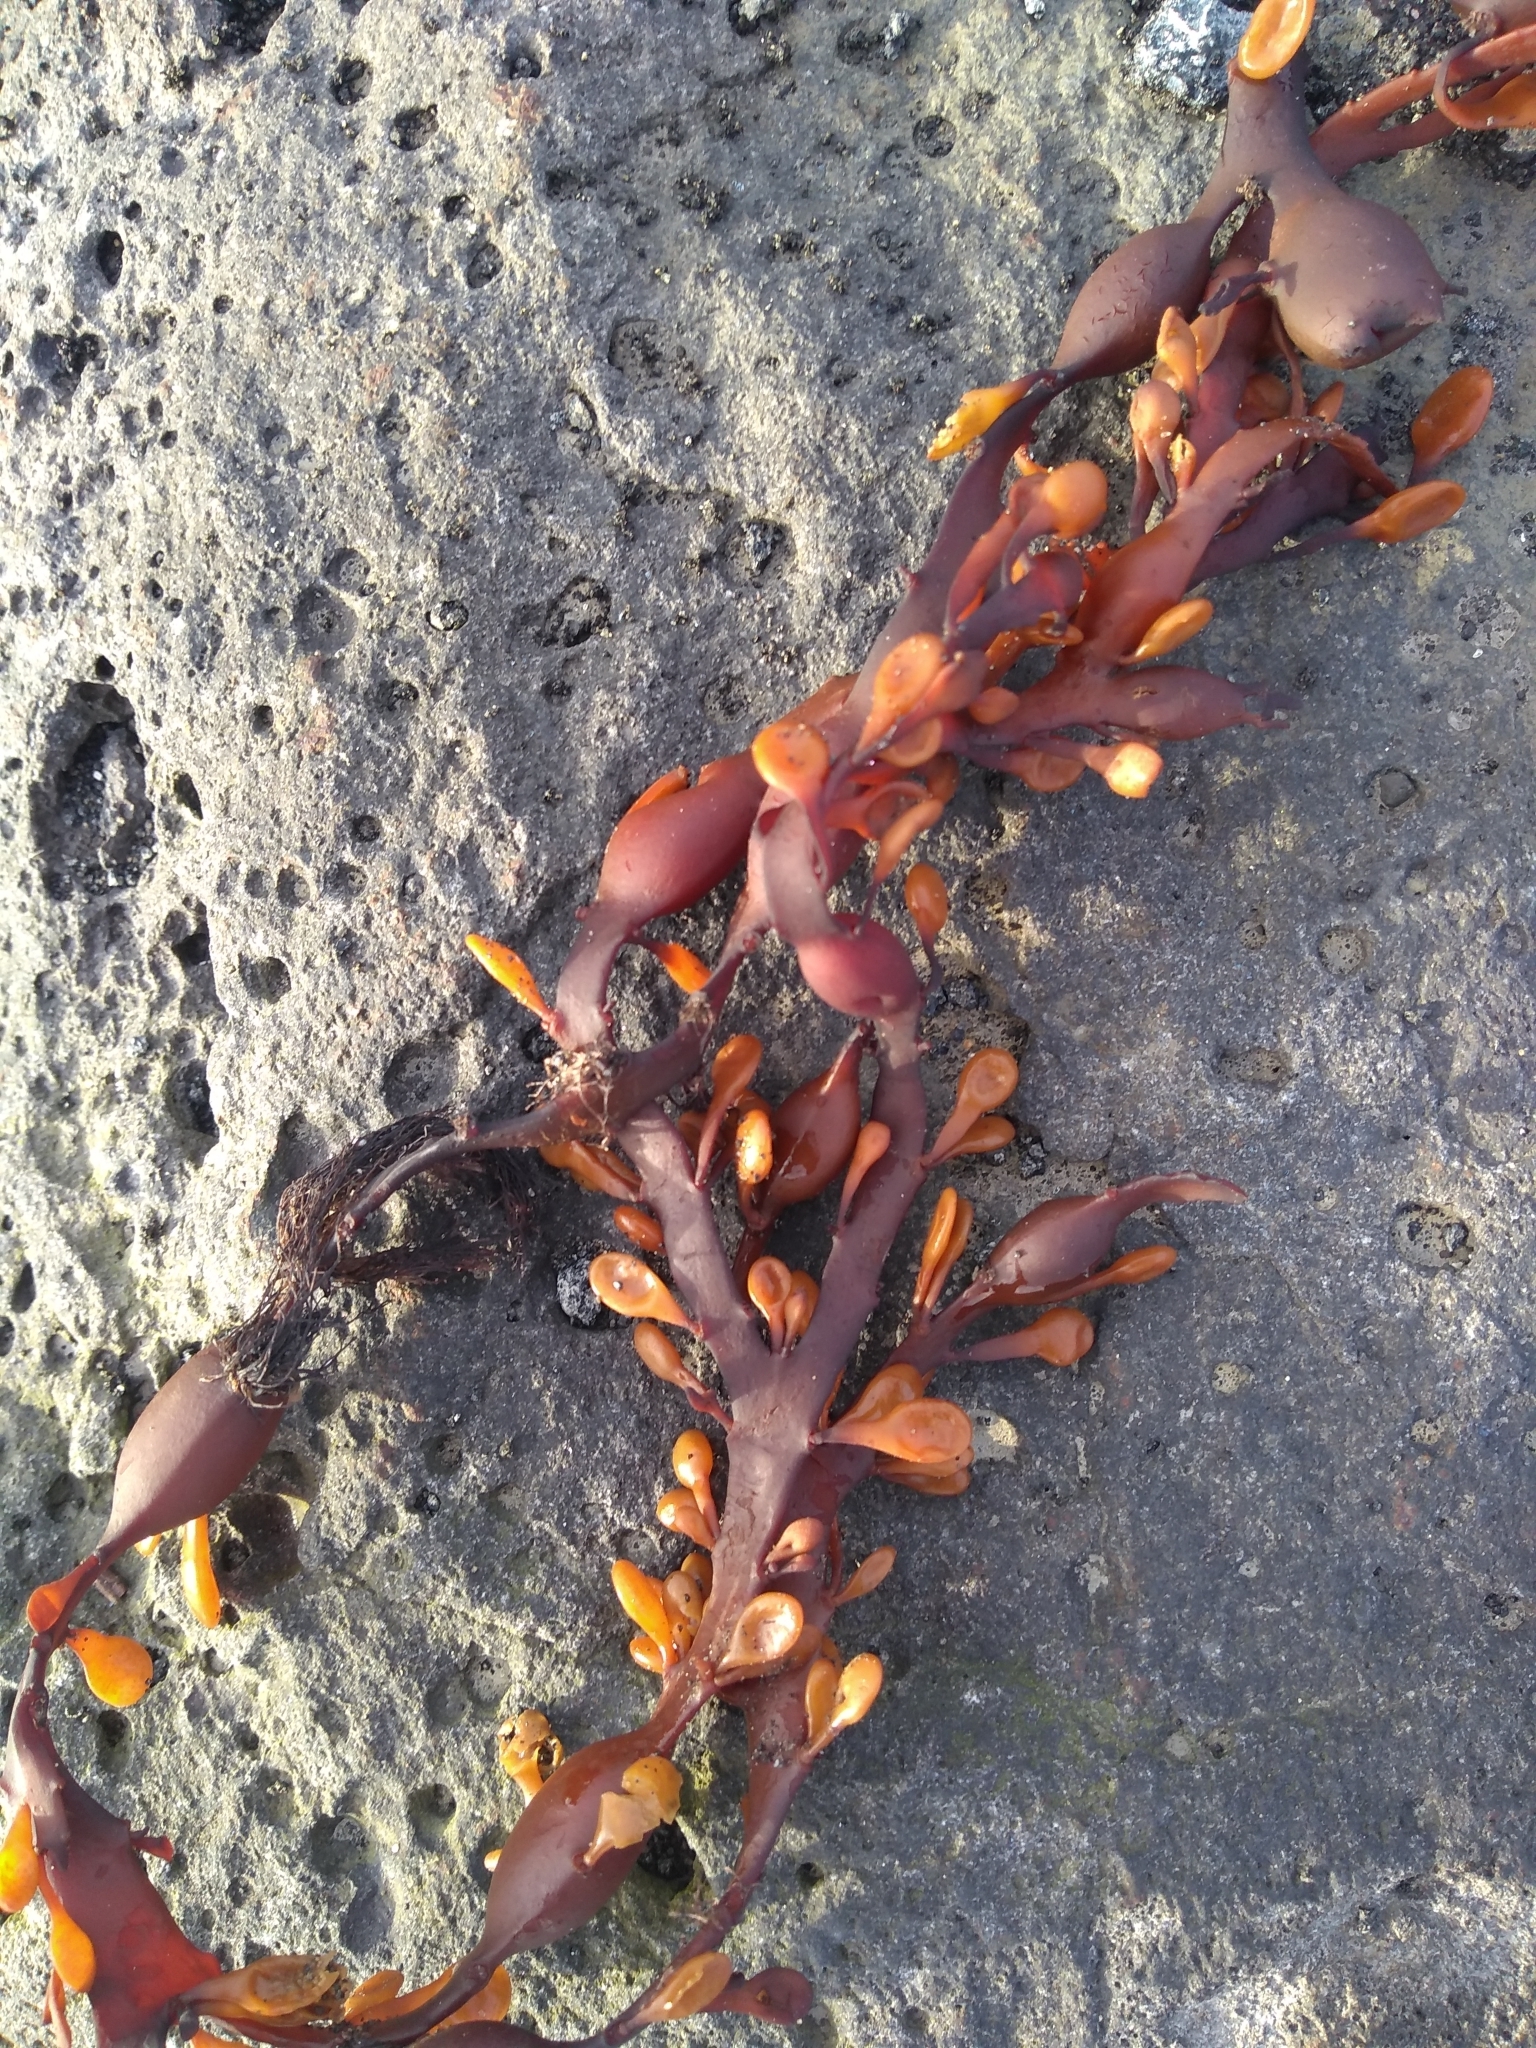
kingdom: Chromista
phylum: Ochrophyta
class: Phaeophyceae
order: Fucales
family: Fucaceae
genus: Ascophyllum
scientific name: Ascophyllum nodosum
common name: Knotted wrack
